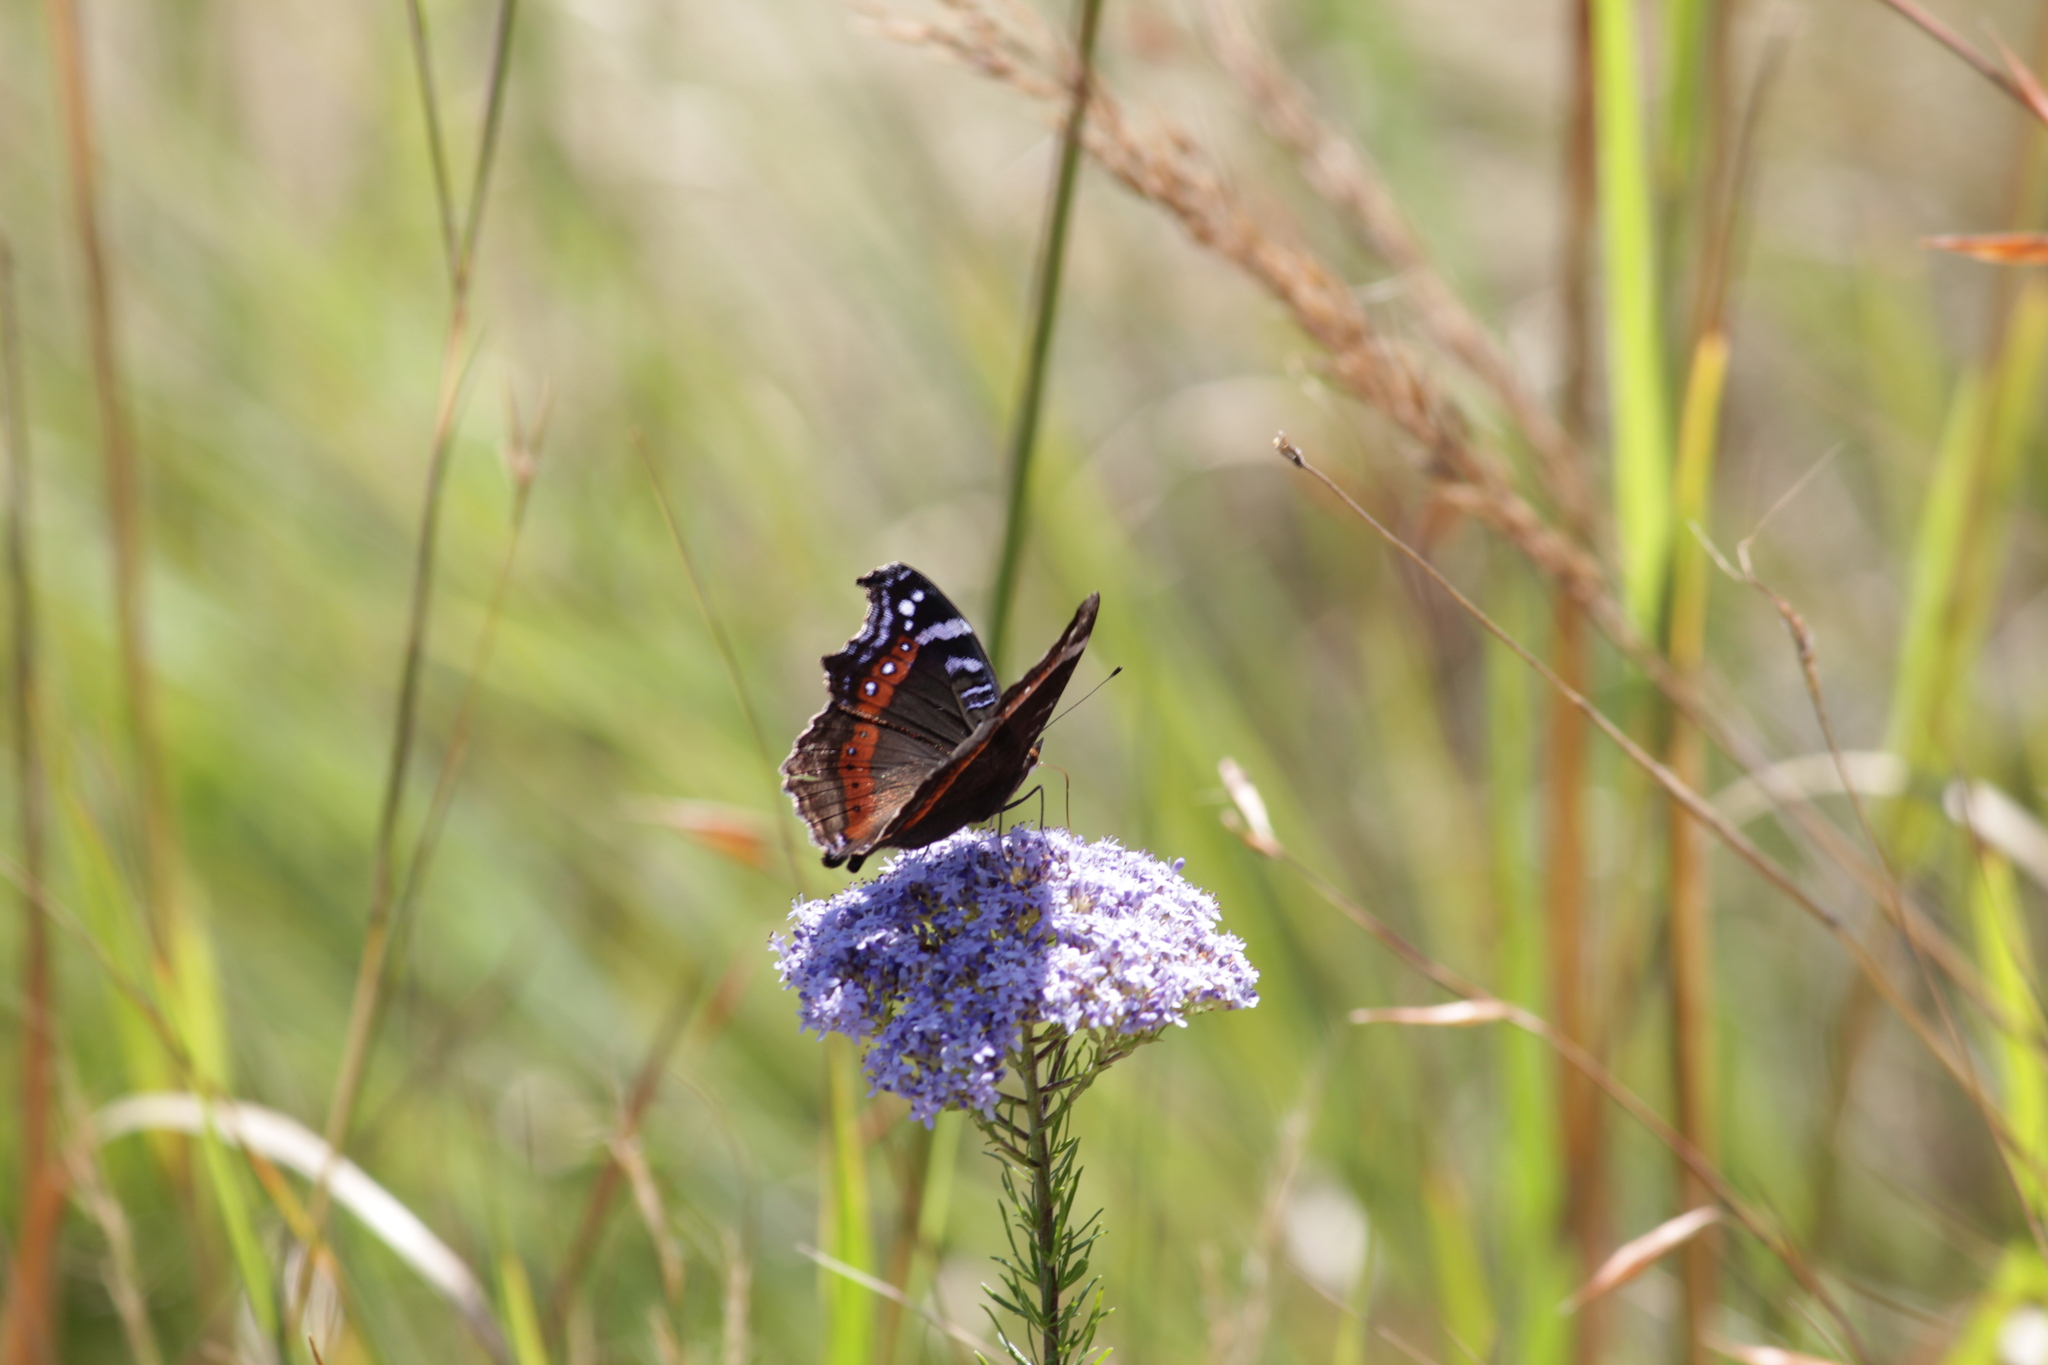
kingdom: Animalia
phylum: Arthropoda
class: Insecta
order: Lepidoptera
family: Nymphalidae
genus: Junonia
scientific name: Junonia archesia
